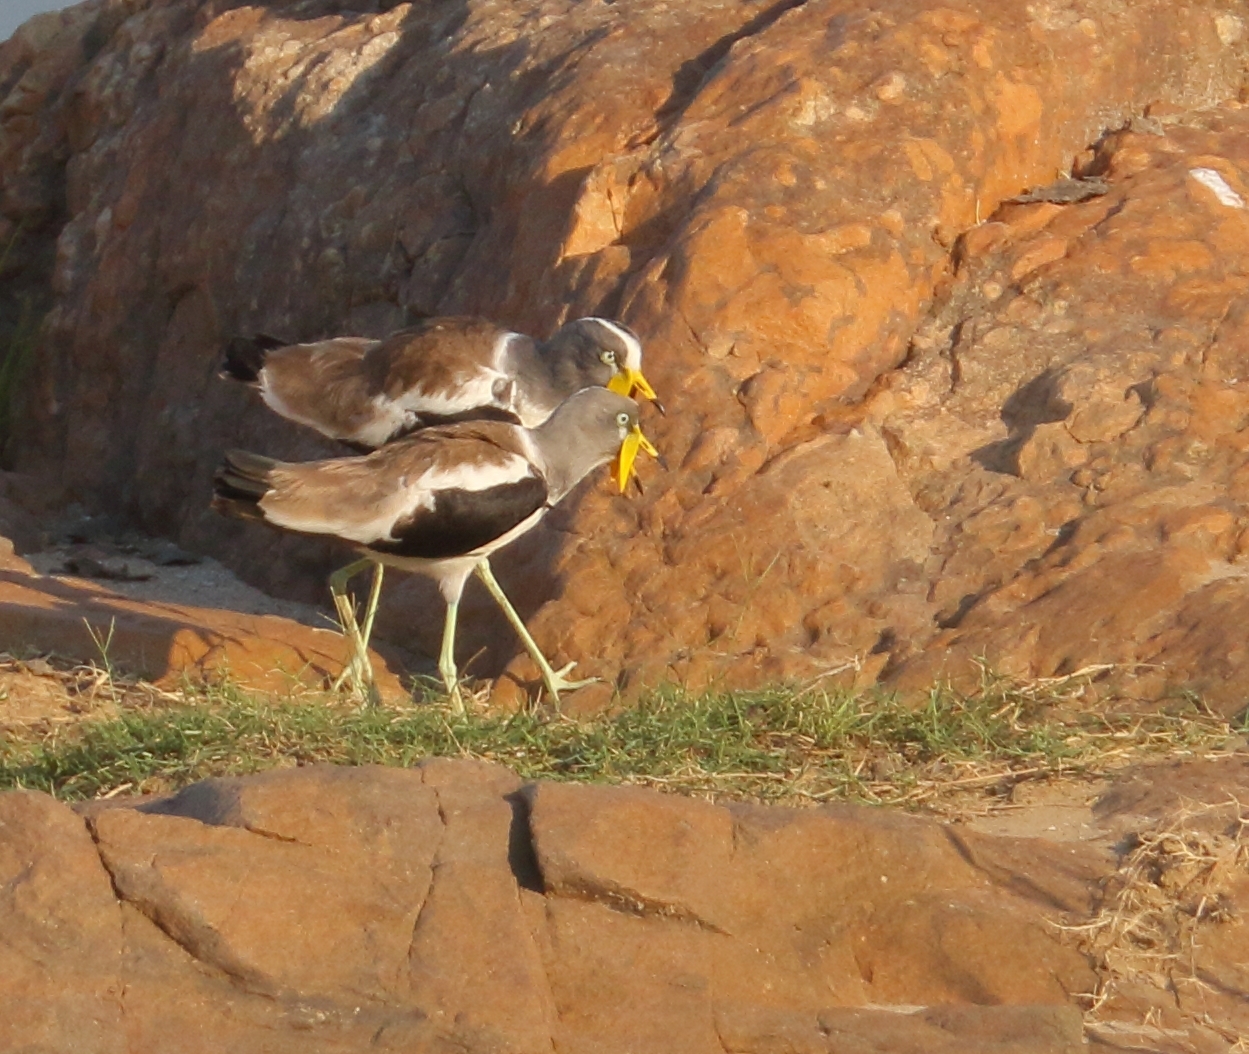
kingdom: Animalia
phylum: Chordata
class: Aves
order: Charadriiformes
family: Charadriidae
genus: Vanellus
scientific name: Vanellus albiceps
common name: White-crowned lapwing
